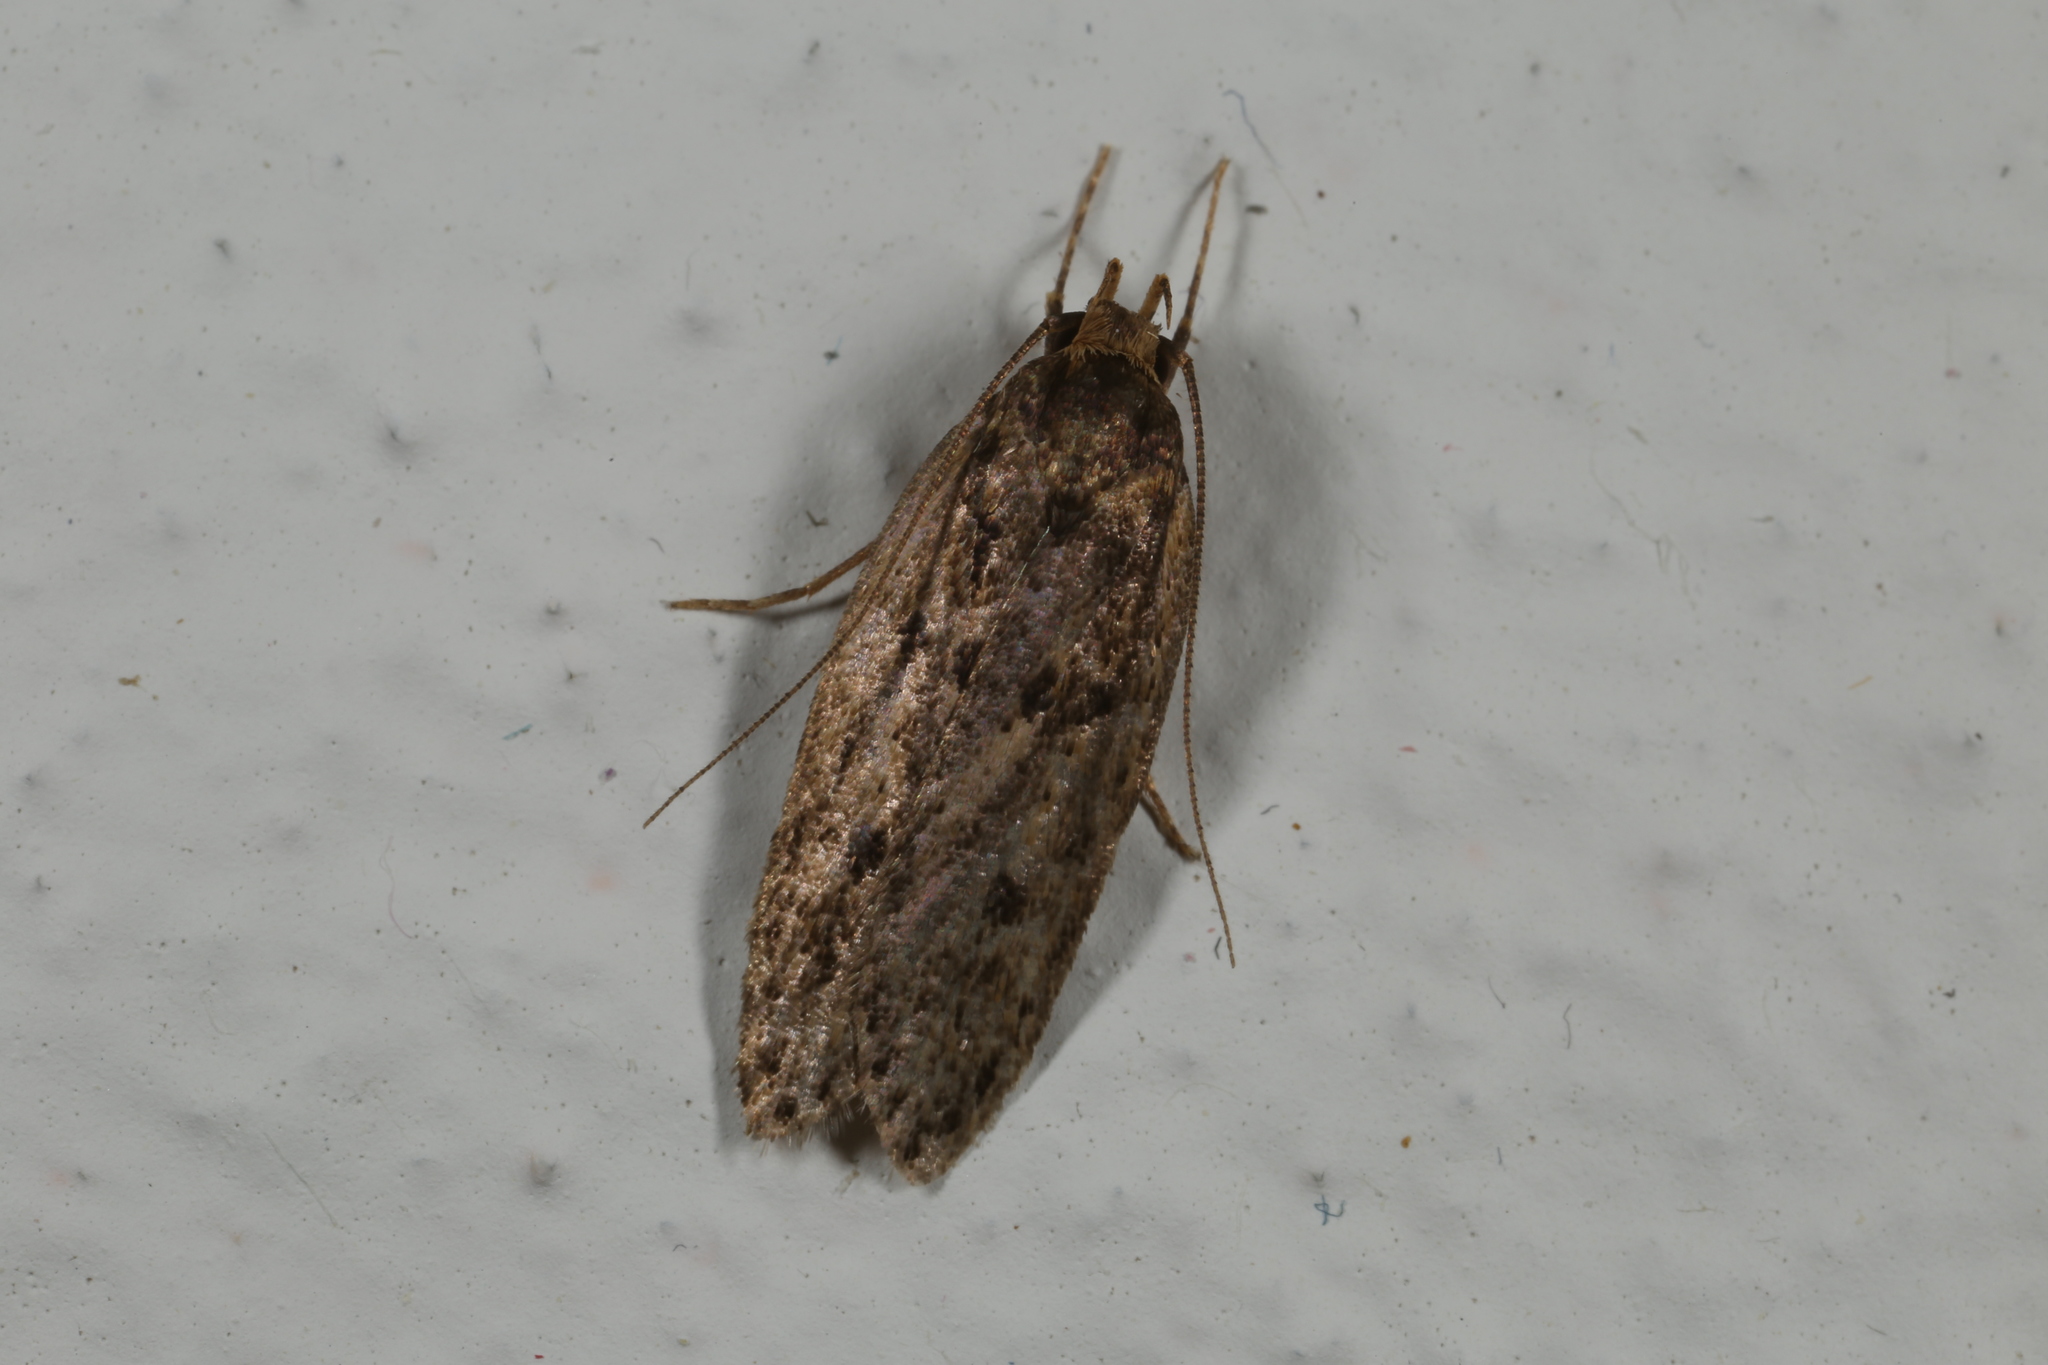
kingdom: Animalia
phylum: Arthropoda
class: Insecta
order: Lepidoptera
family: Oecophoridae
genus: Hofmannophila
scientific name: Hofmannophila pseudospretella
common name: Brown house moth
